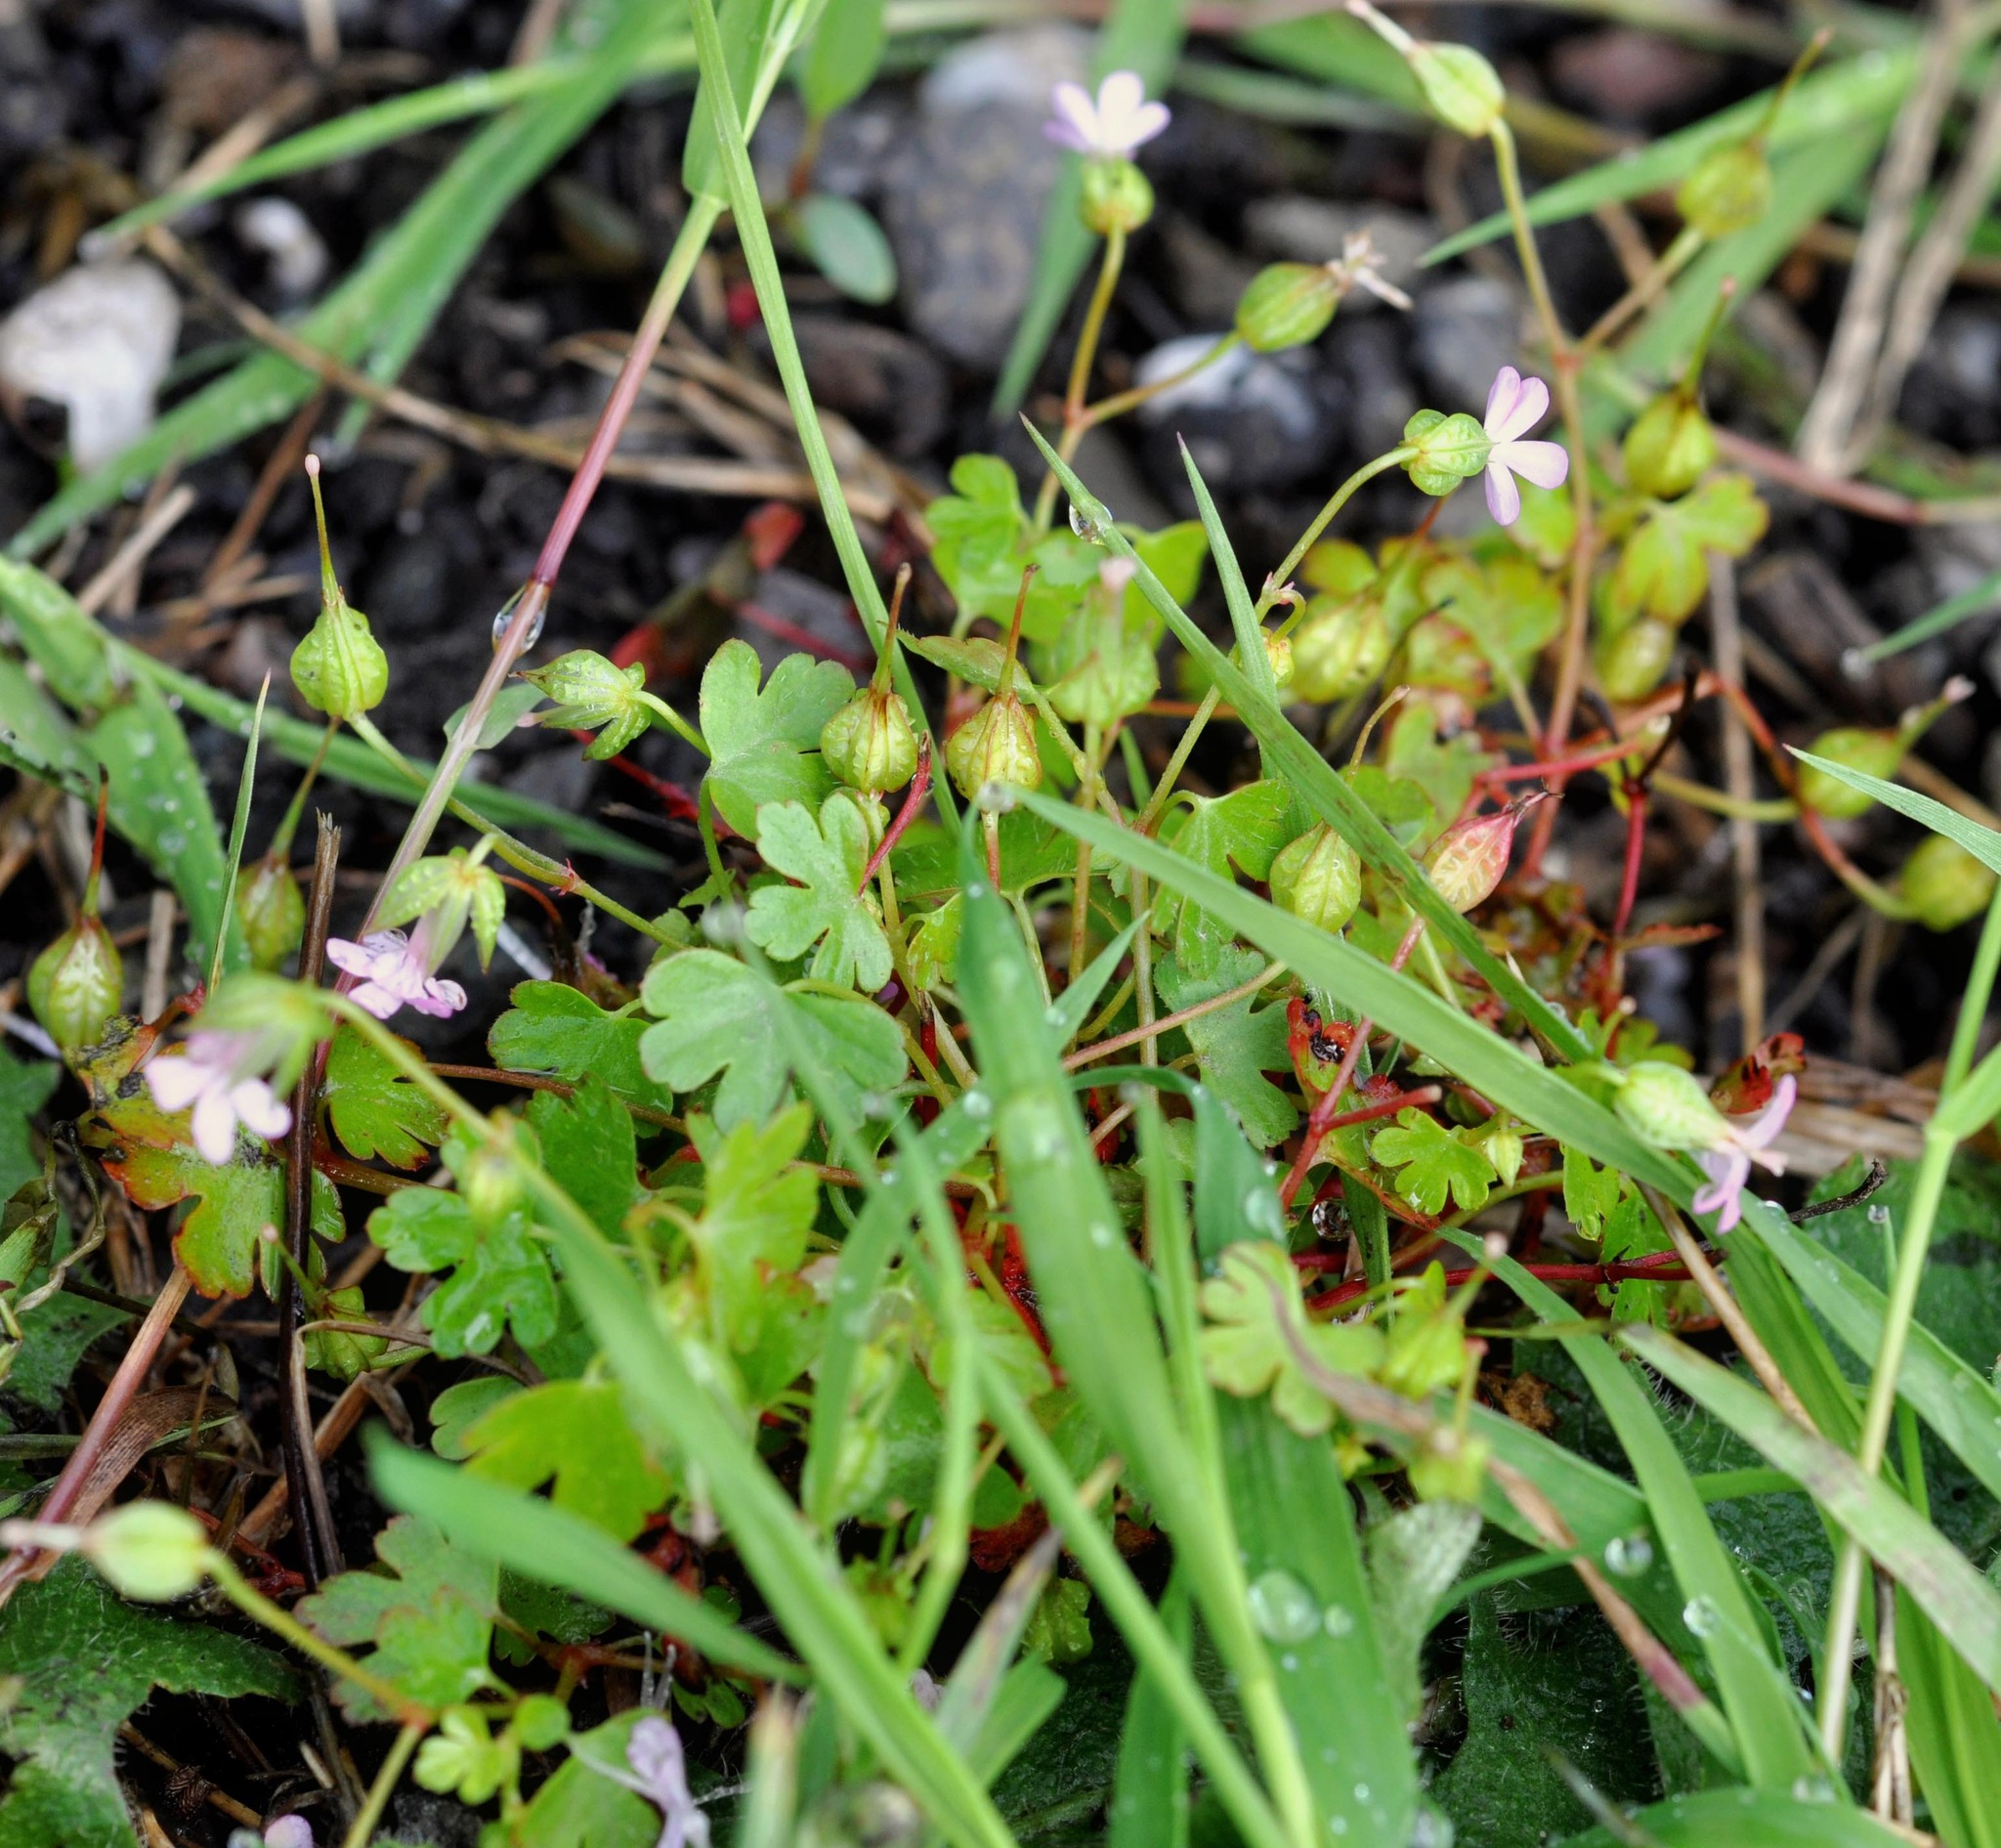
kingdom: Plantae
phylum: Tracheophyta
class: Magnoliopsida
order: Geraniales
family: Geraniaceae
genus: Geranium
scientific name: Geranium lucidum
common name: Shining crane's-bill
